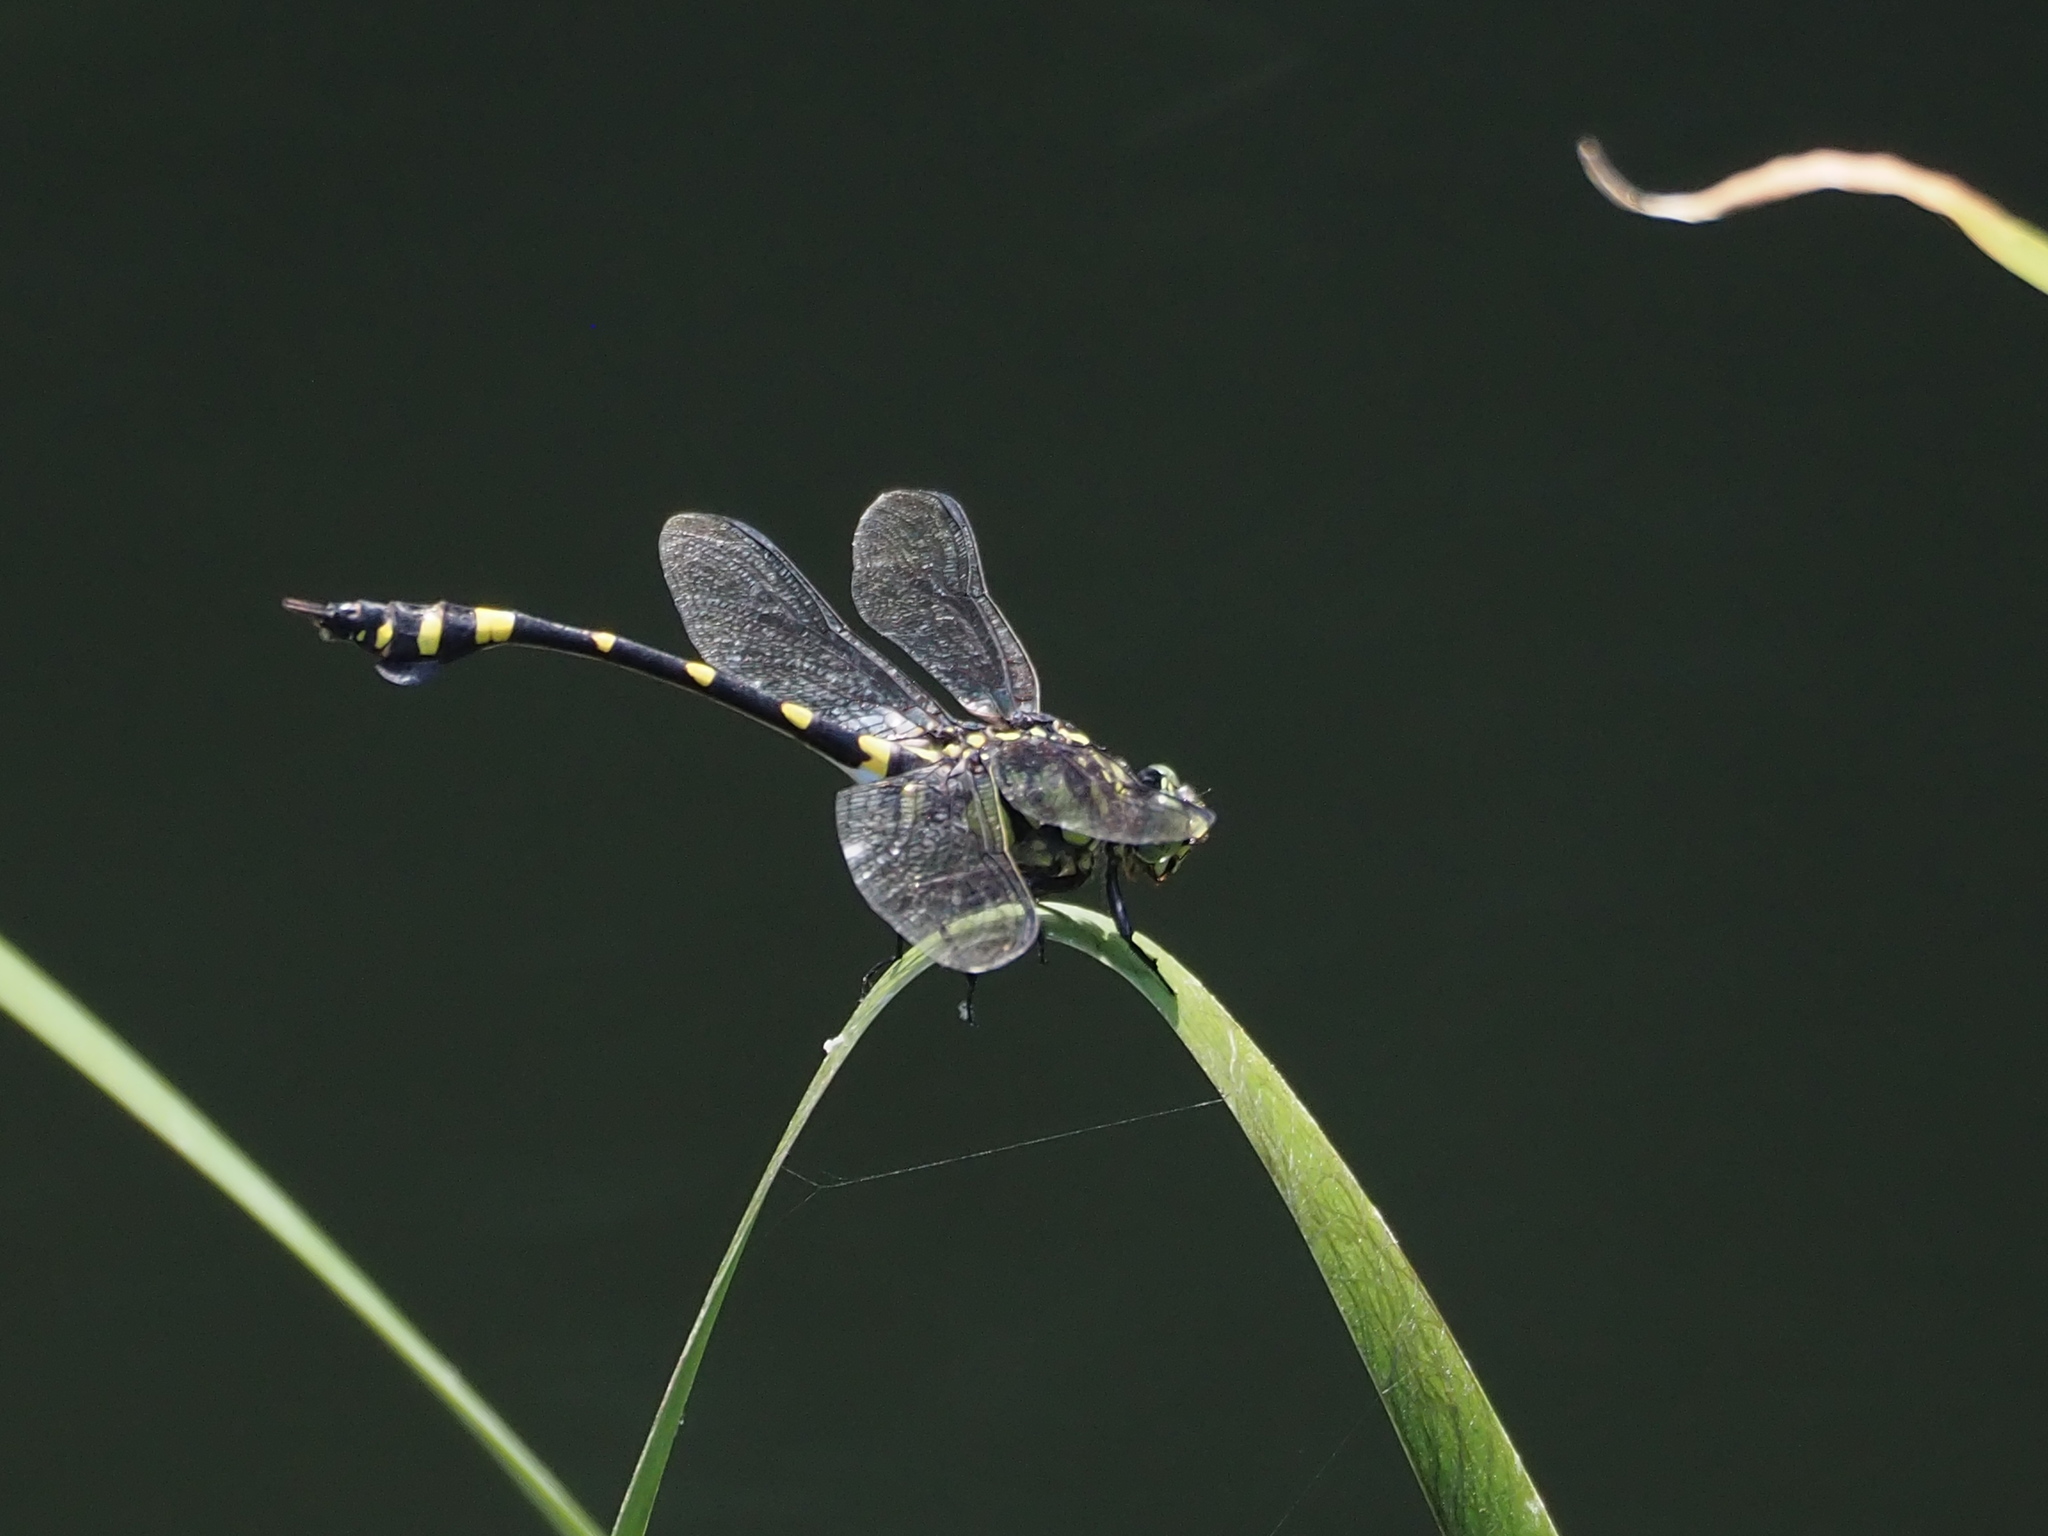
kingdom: Animalia
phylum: Arthropoda
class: Insecta
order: Odonata
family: Gomphidae
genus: Ictinogomphus
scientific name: Ictinogomphus rapax
